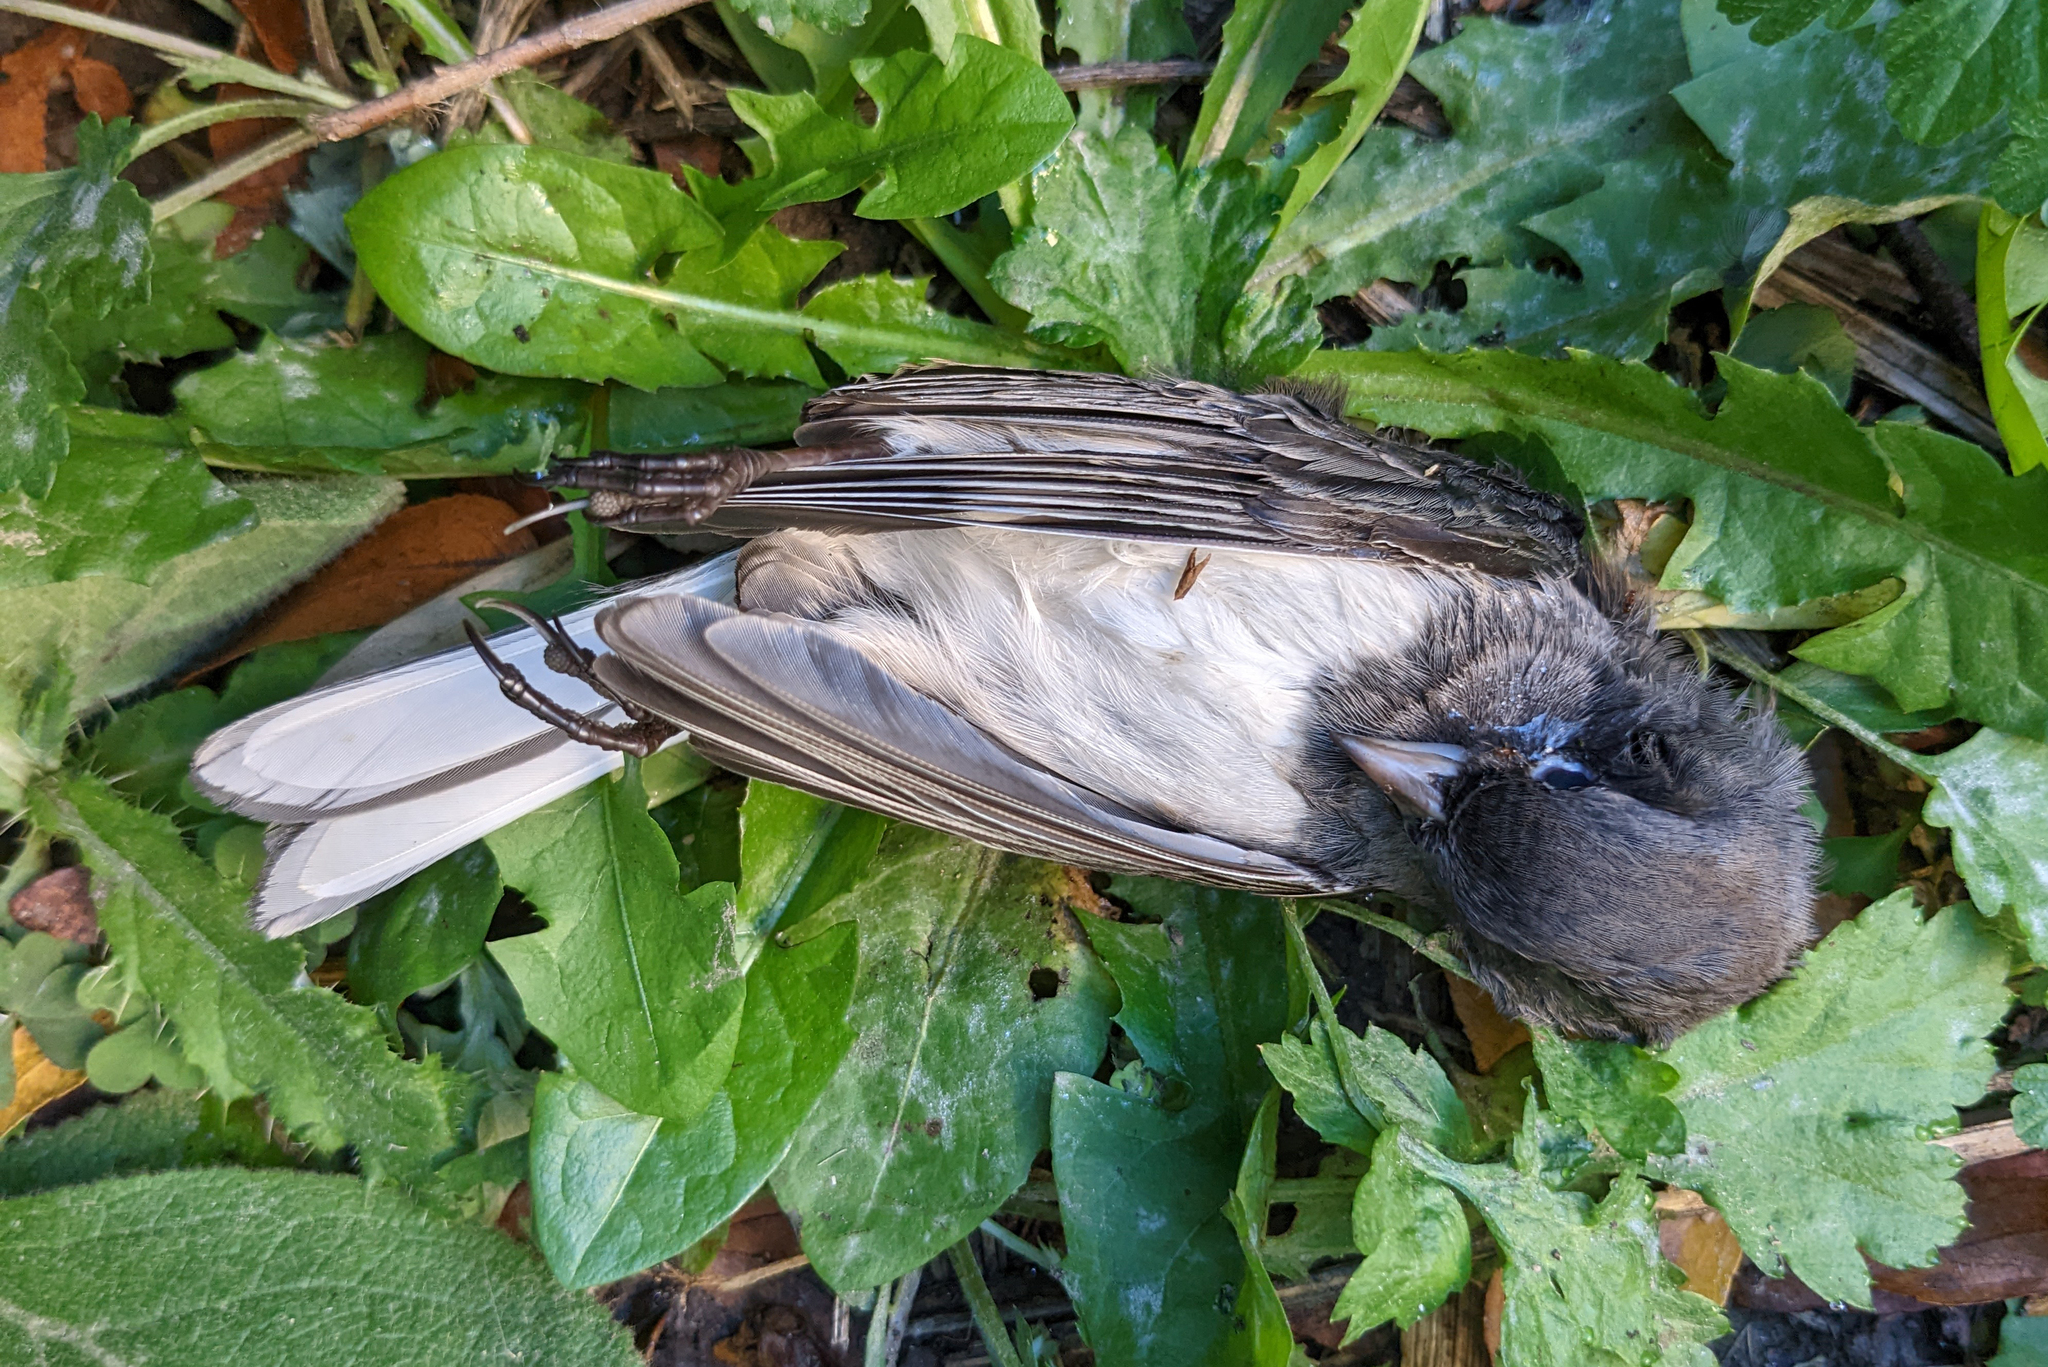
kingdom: Animalia
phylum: Chordata
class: Aves
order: Passeriformes
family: Passerellidae
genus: Junco
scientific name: Junco hyemalis
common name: Dark-eyed junco
